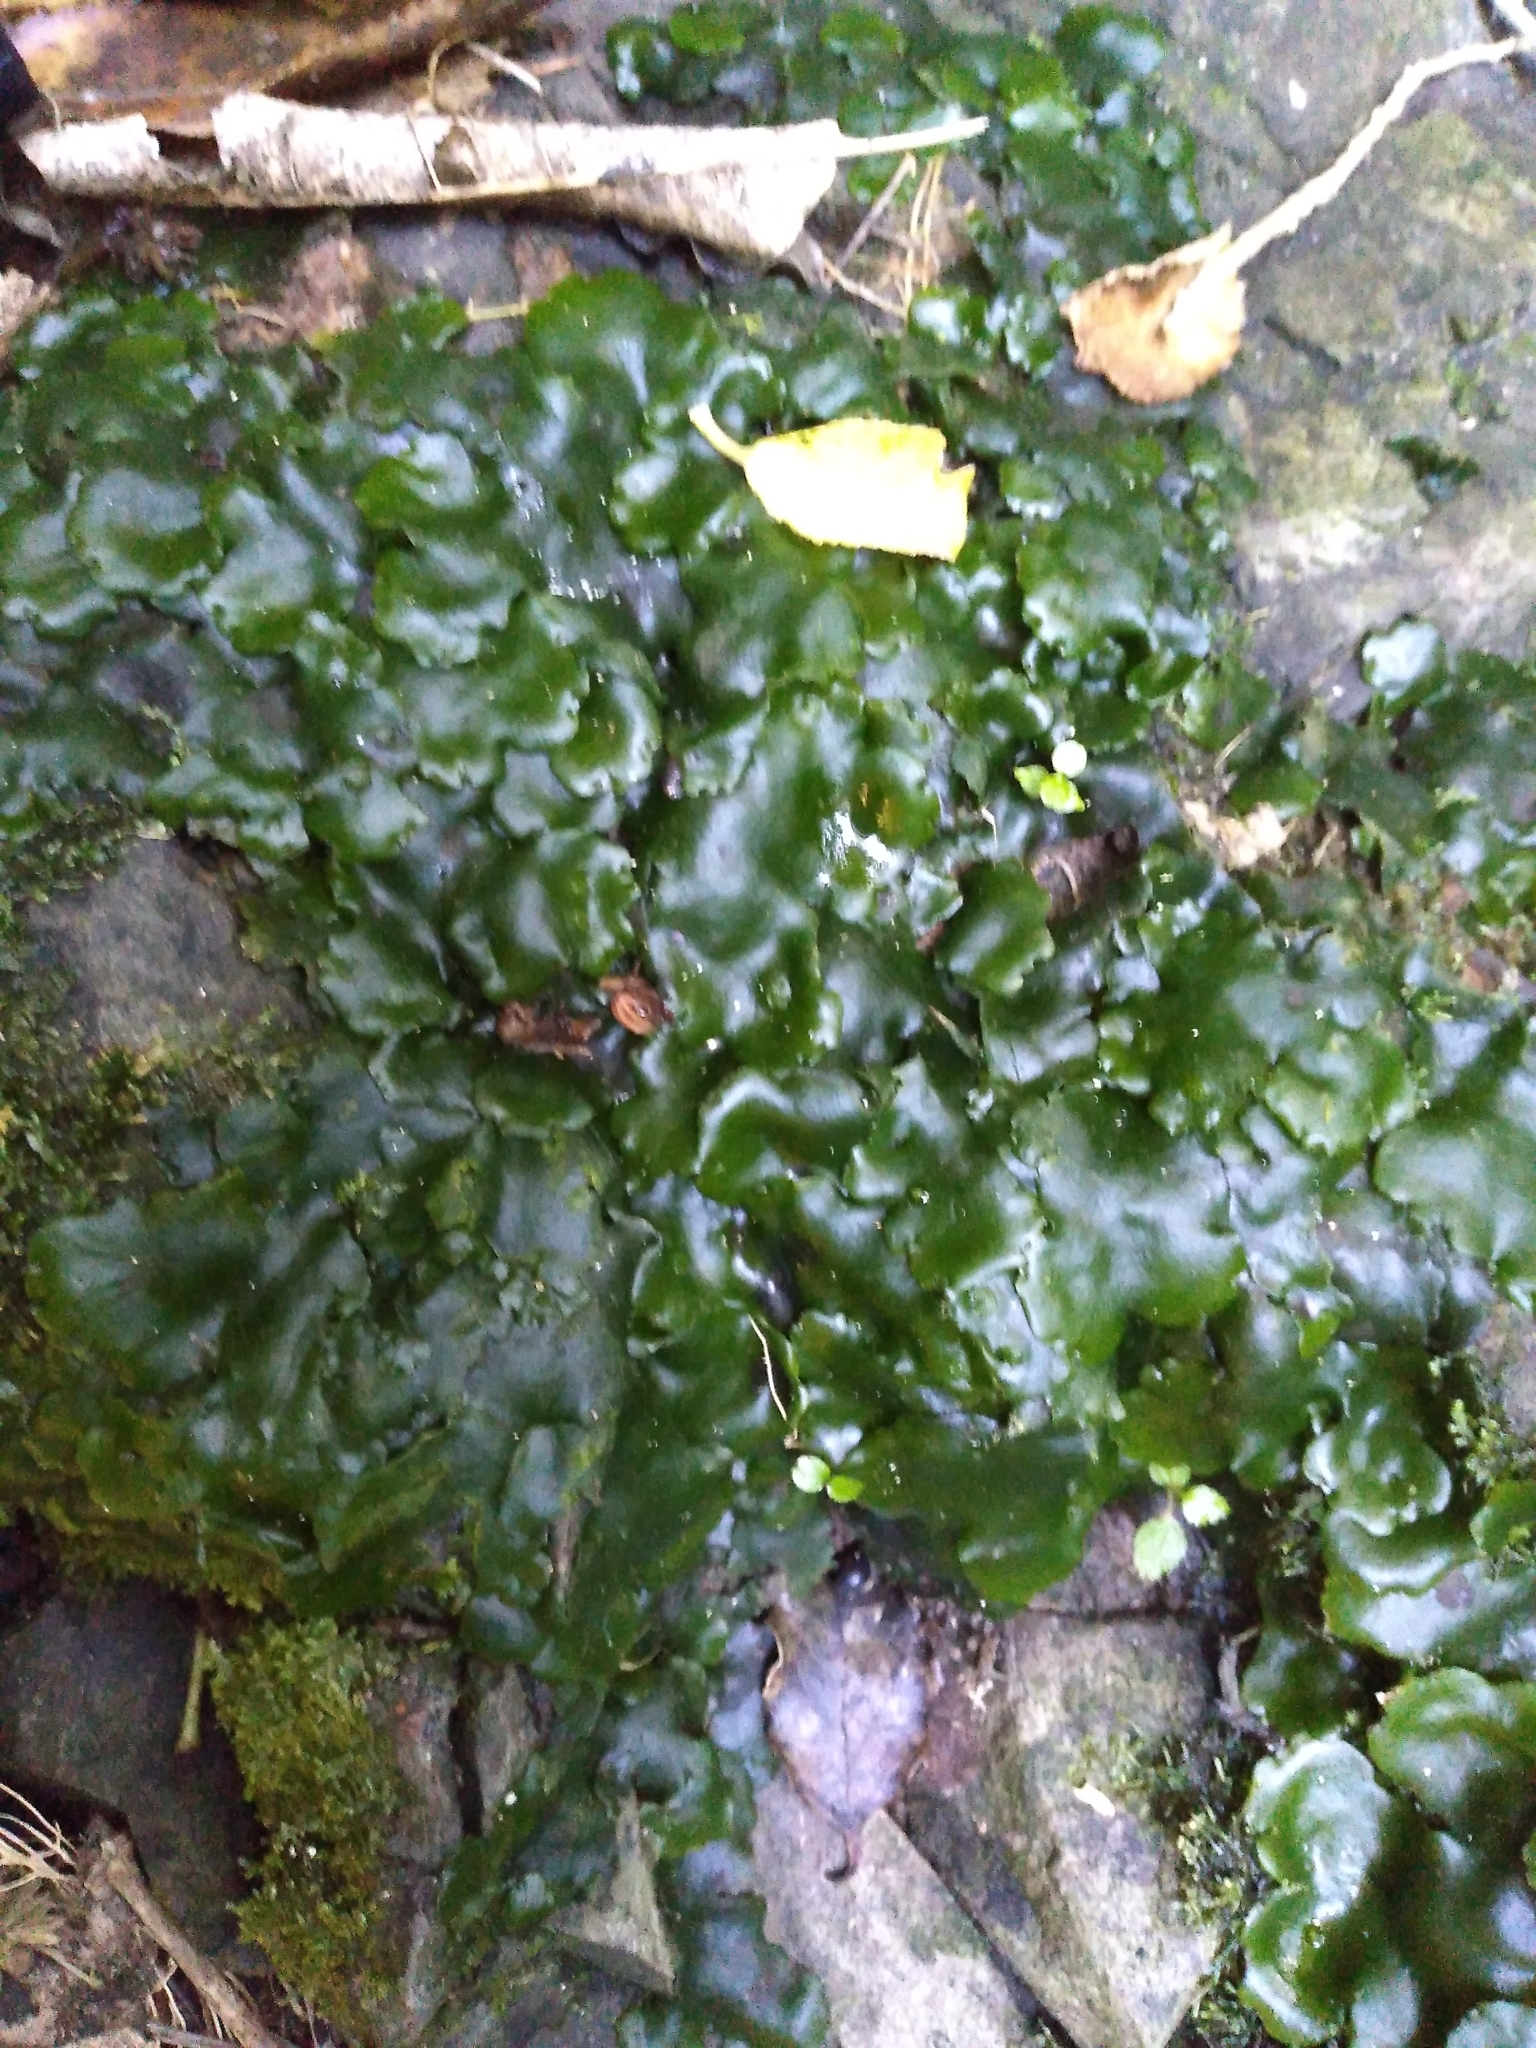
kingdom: Plantae
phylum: Marchantiophyta
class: Marchantiopsida
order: Marchantiales
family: Monocleaceae
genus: Monoclea
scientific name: Monoclea forsteri
